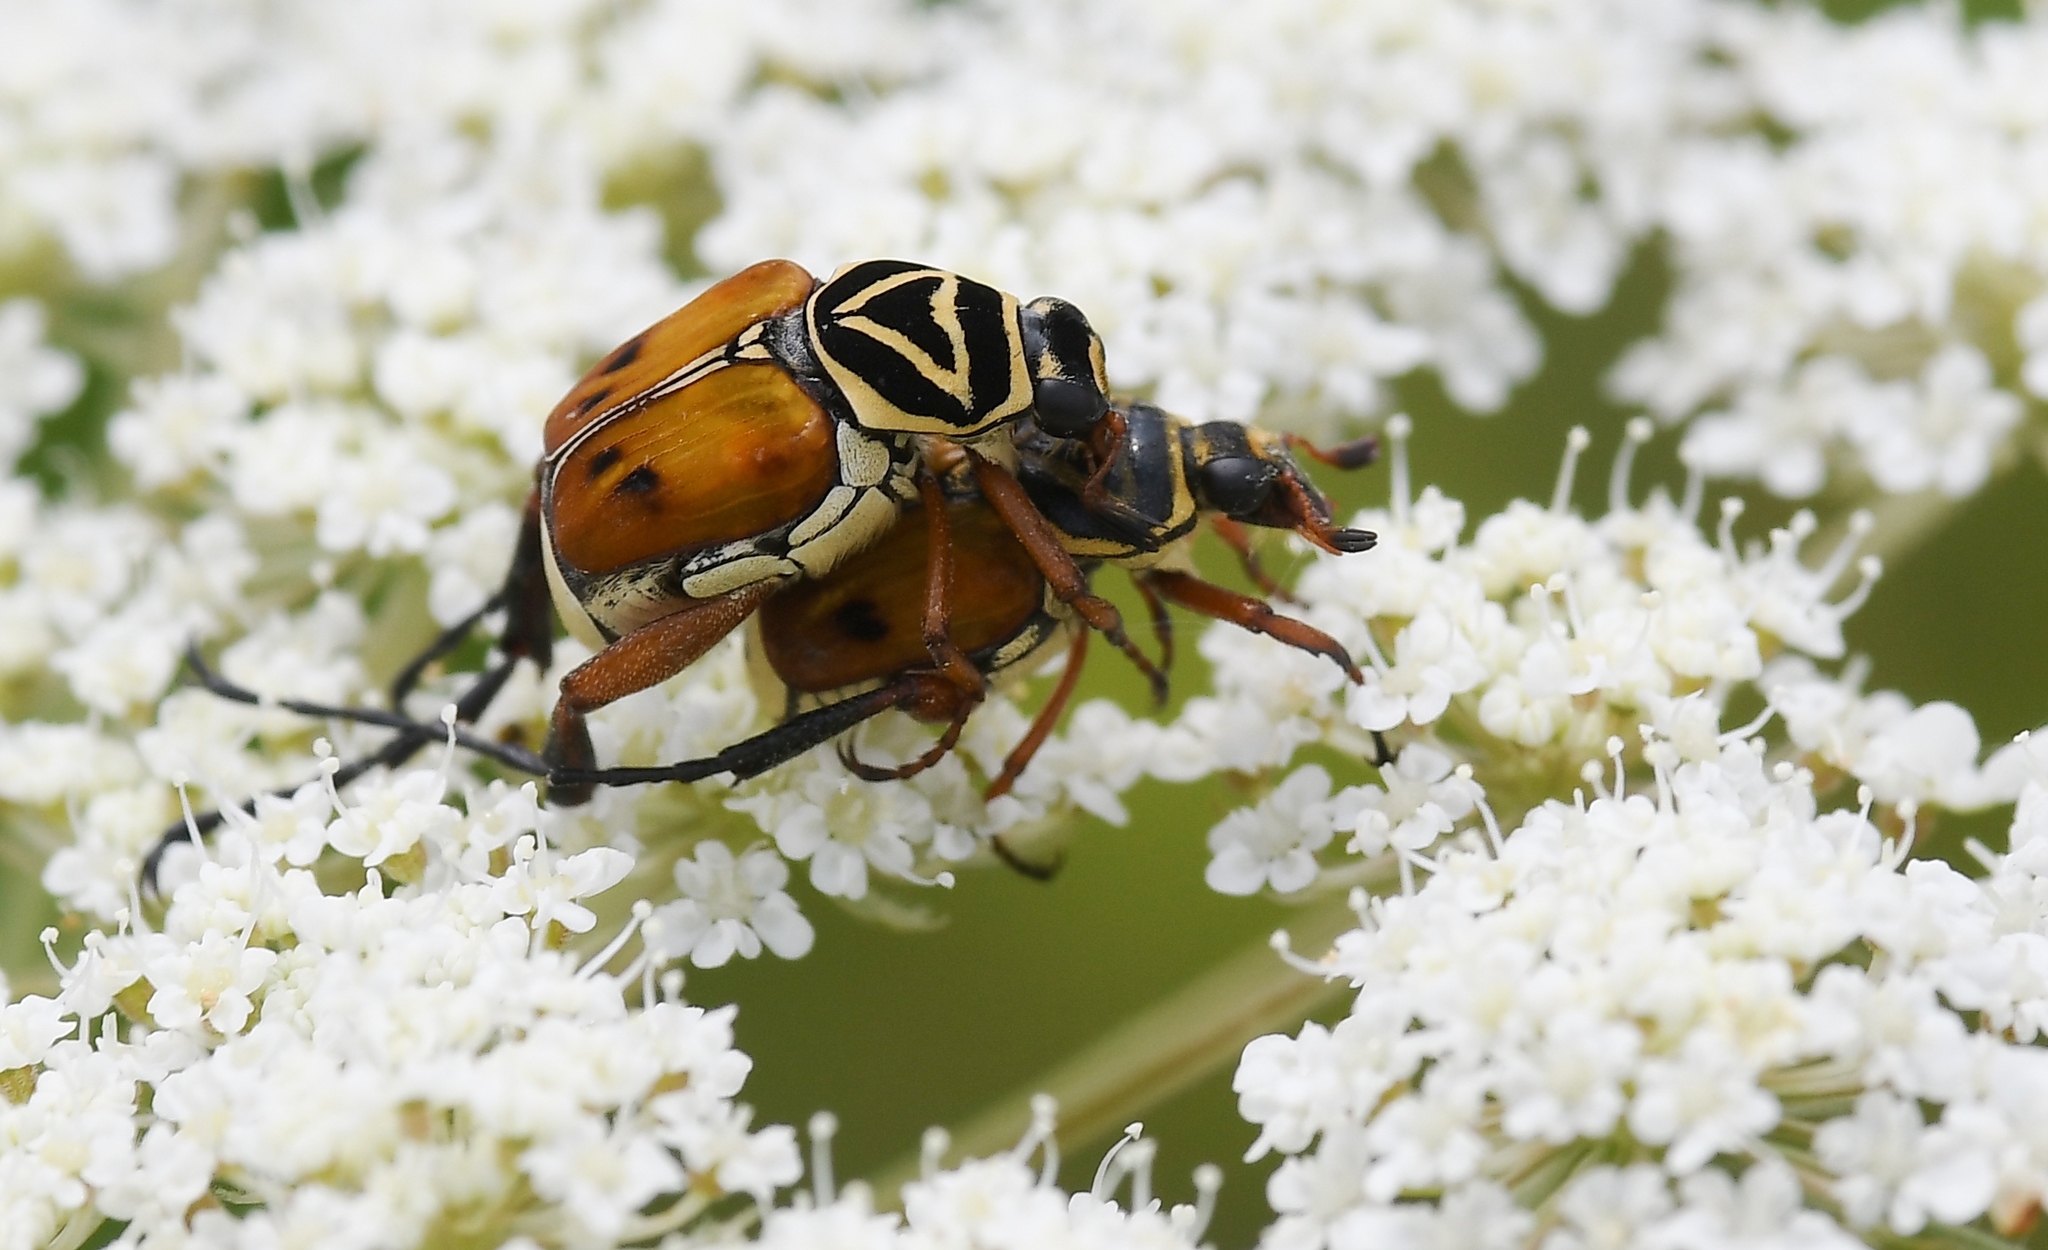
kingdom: Animalia
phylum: Arthropoda
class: Insecta
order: Coleoptera
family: Scarabaeidae
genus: Trigonopeltastes
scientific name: Trigonopeltastes delta
